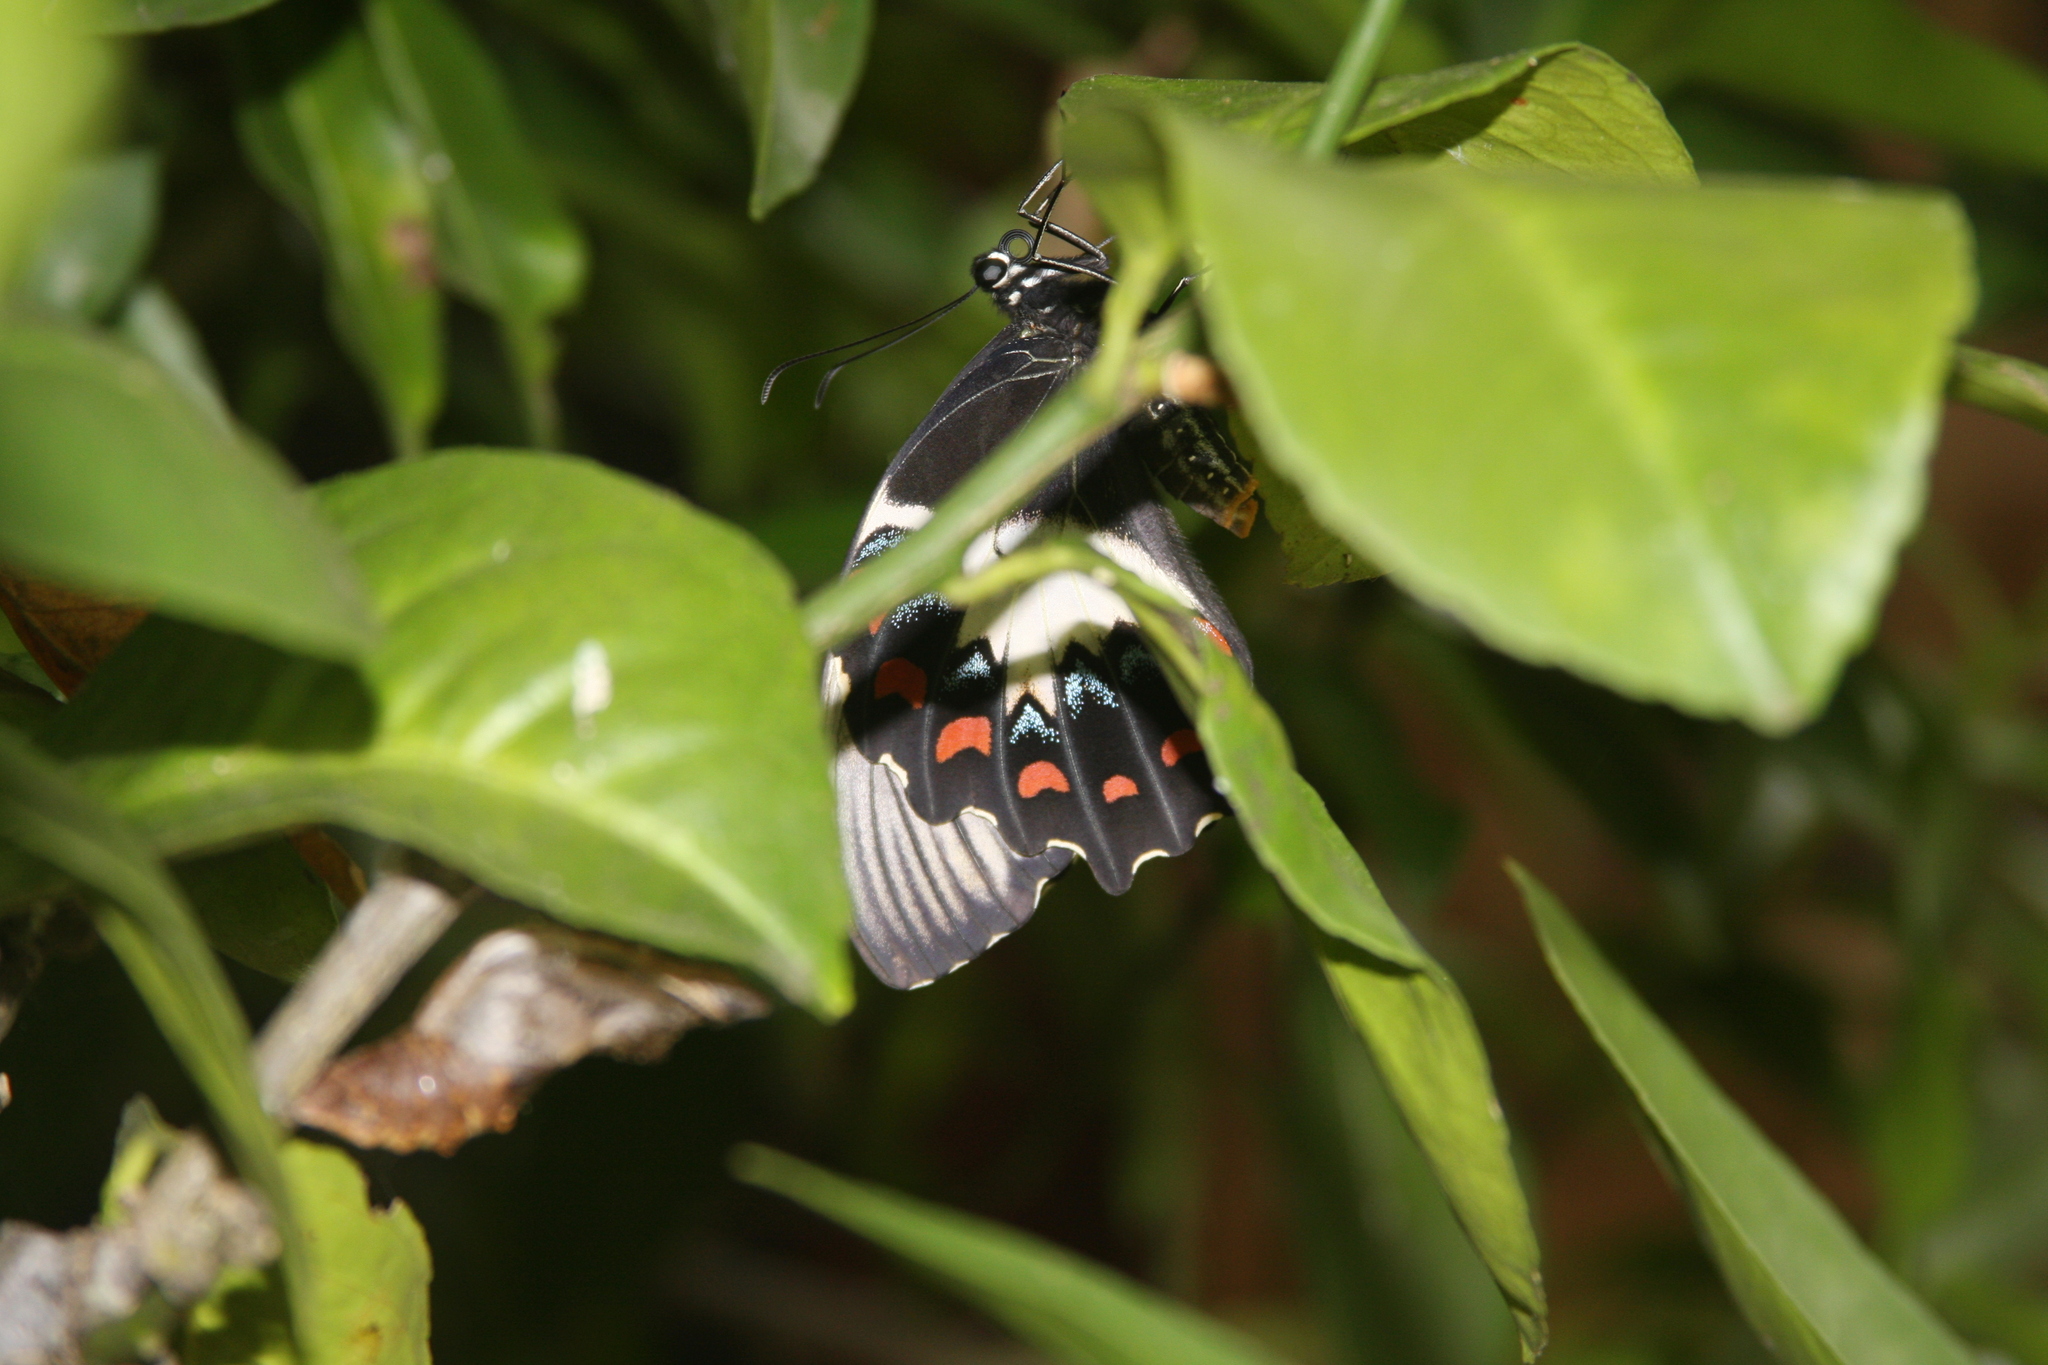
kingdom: Animalia
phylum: Arthropoda
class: Insecta
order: Lepidoptera
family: Papilionidae
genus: Papilio
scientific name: Papilio aegeus
